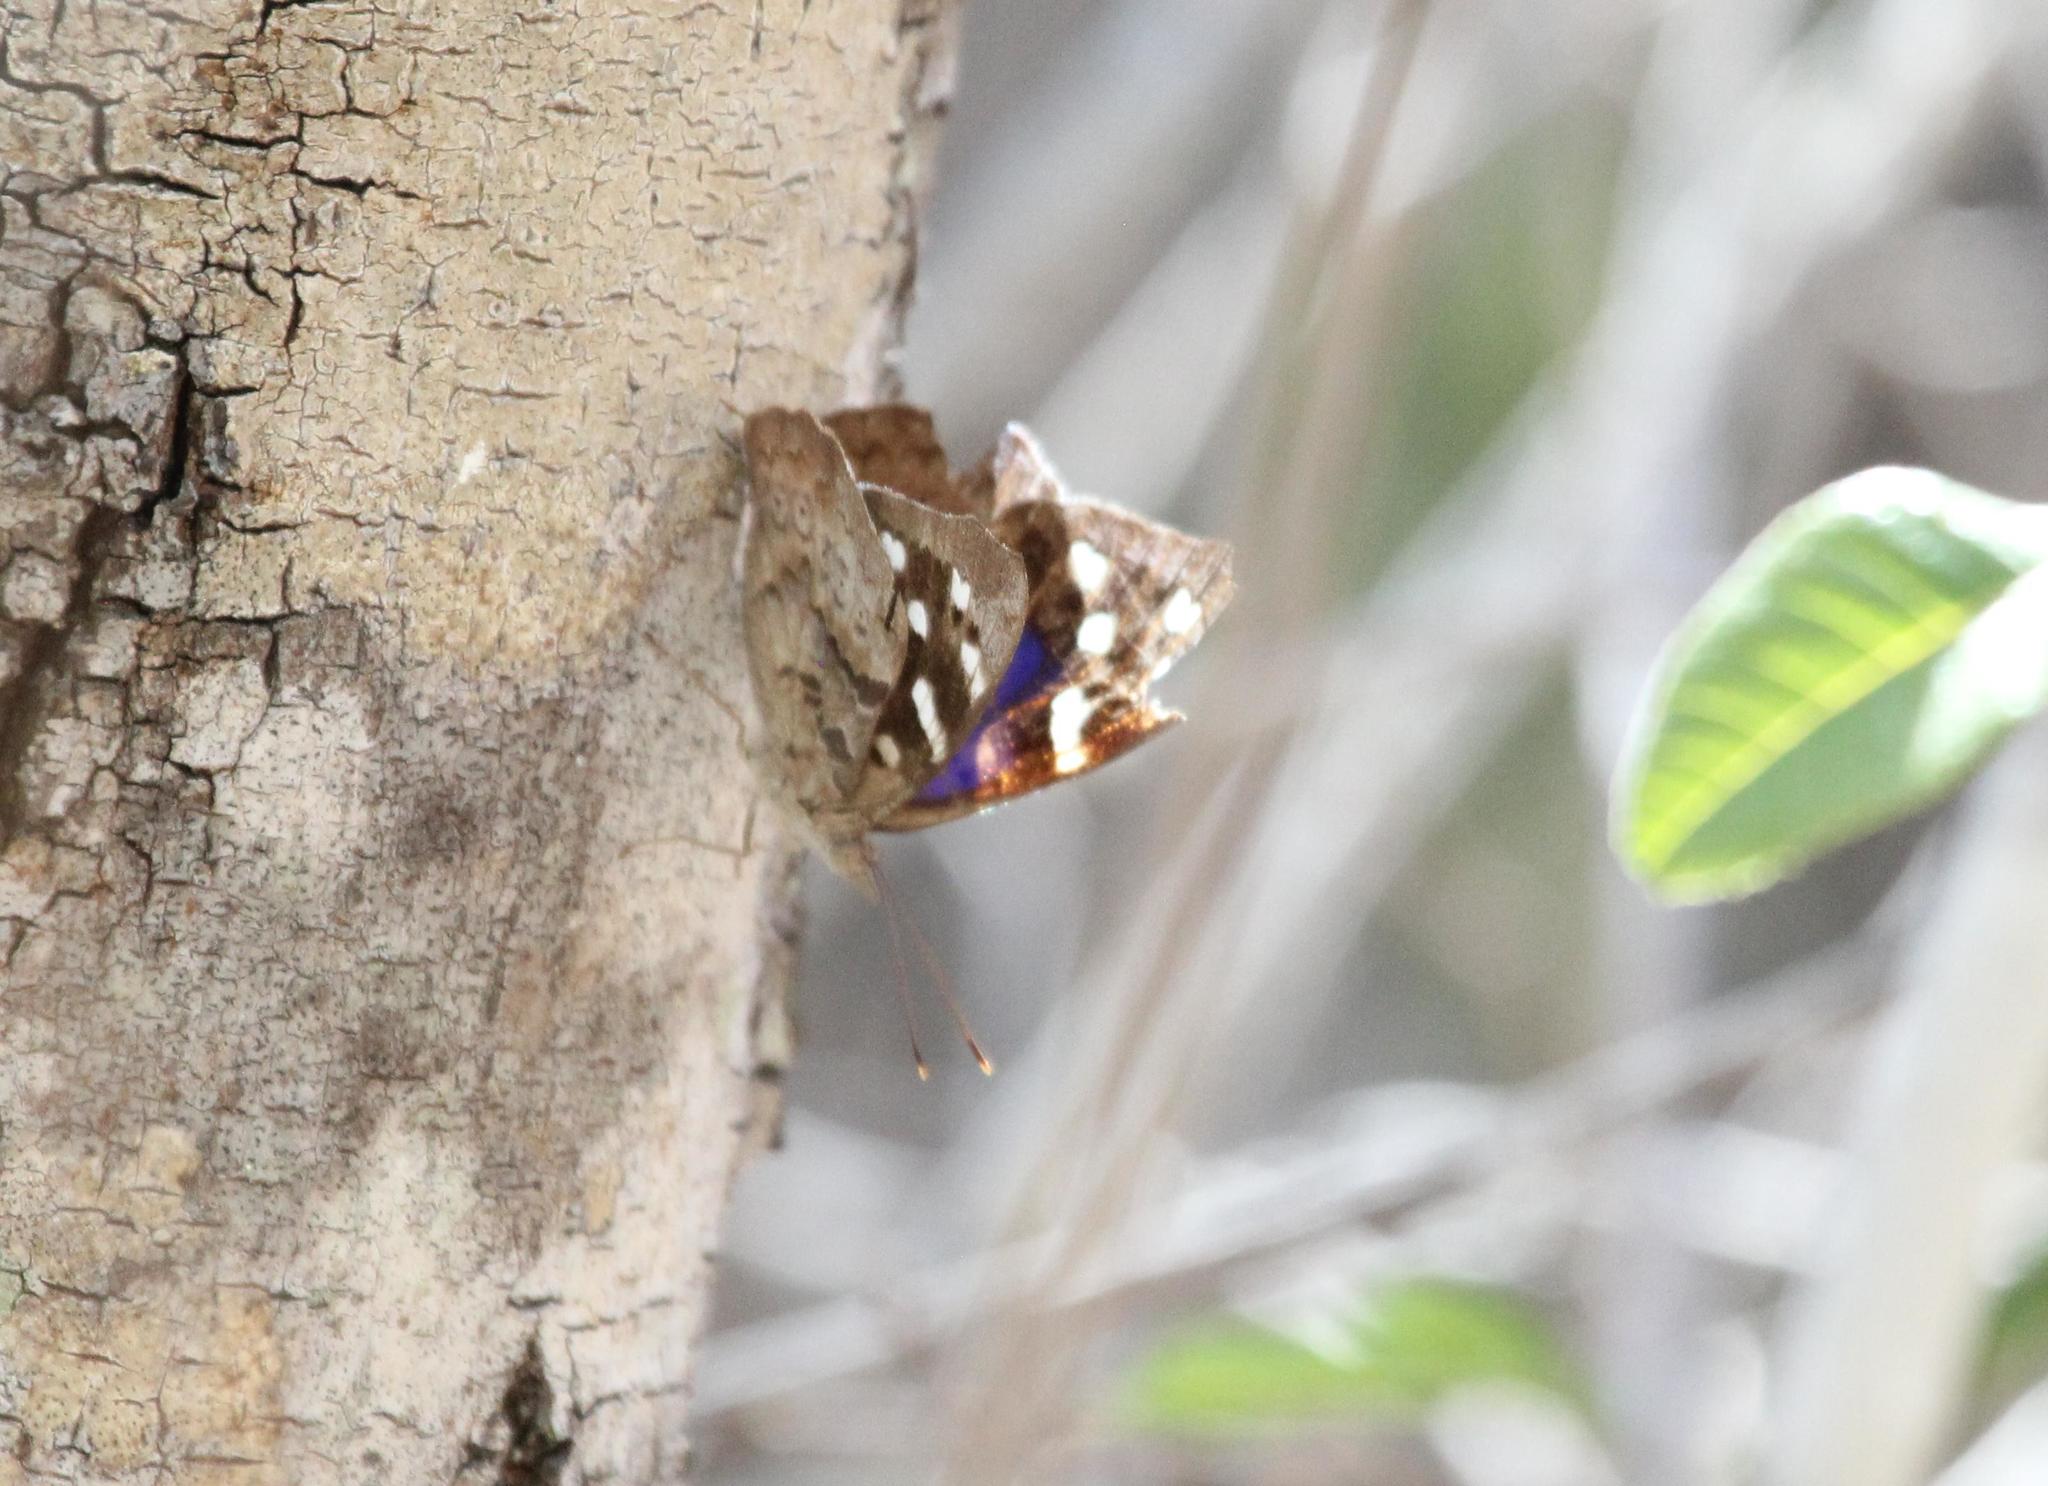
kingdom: Animalia
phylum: Arthropoda
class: Insecta
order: Lepidoptera
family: Nymphalidae
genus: Eunica
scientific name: Eunica tatila
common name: Florida purplewing
